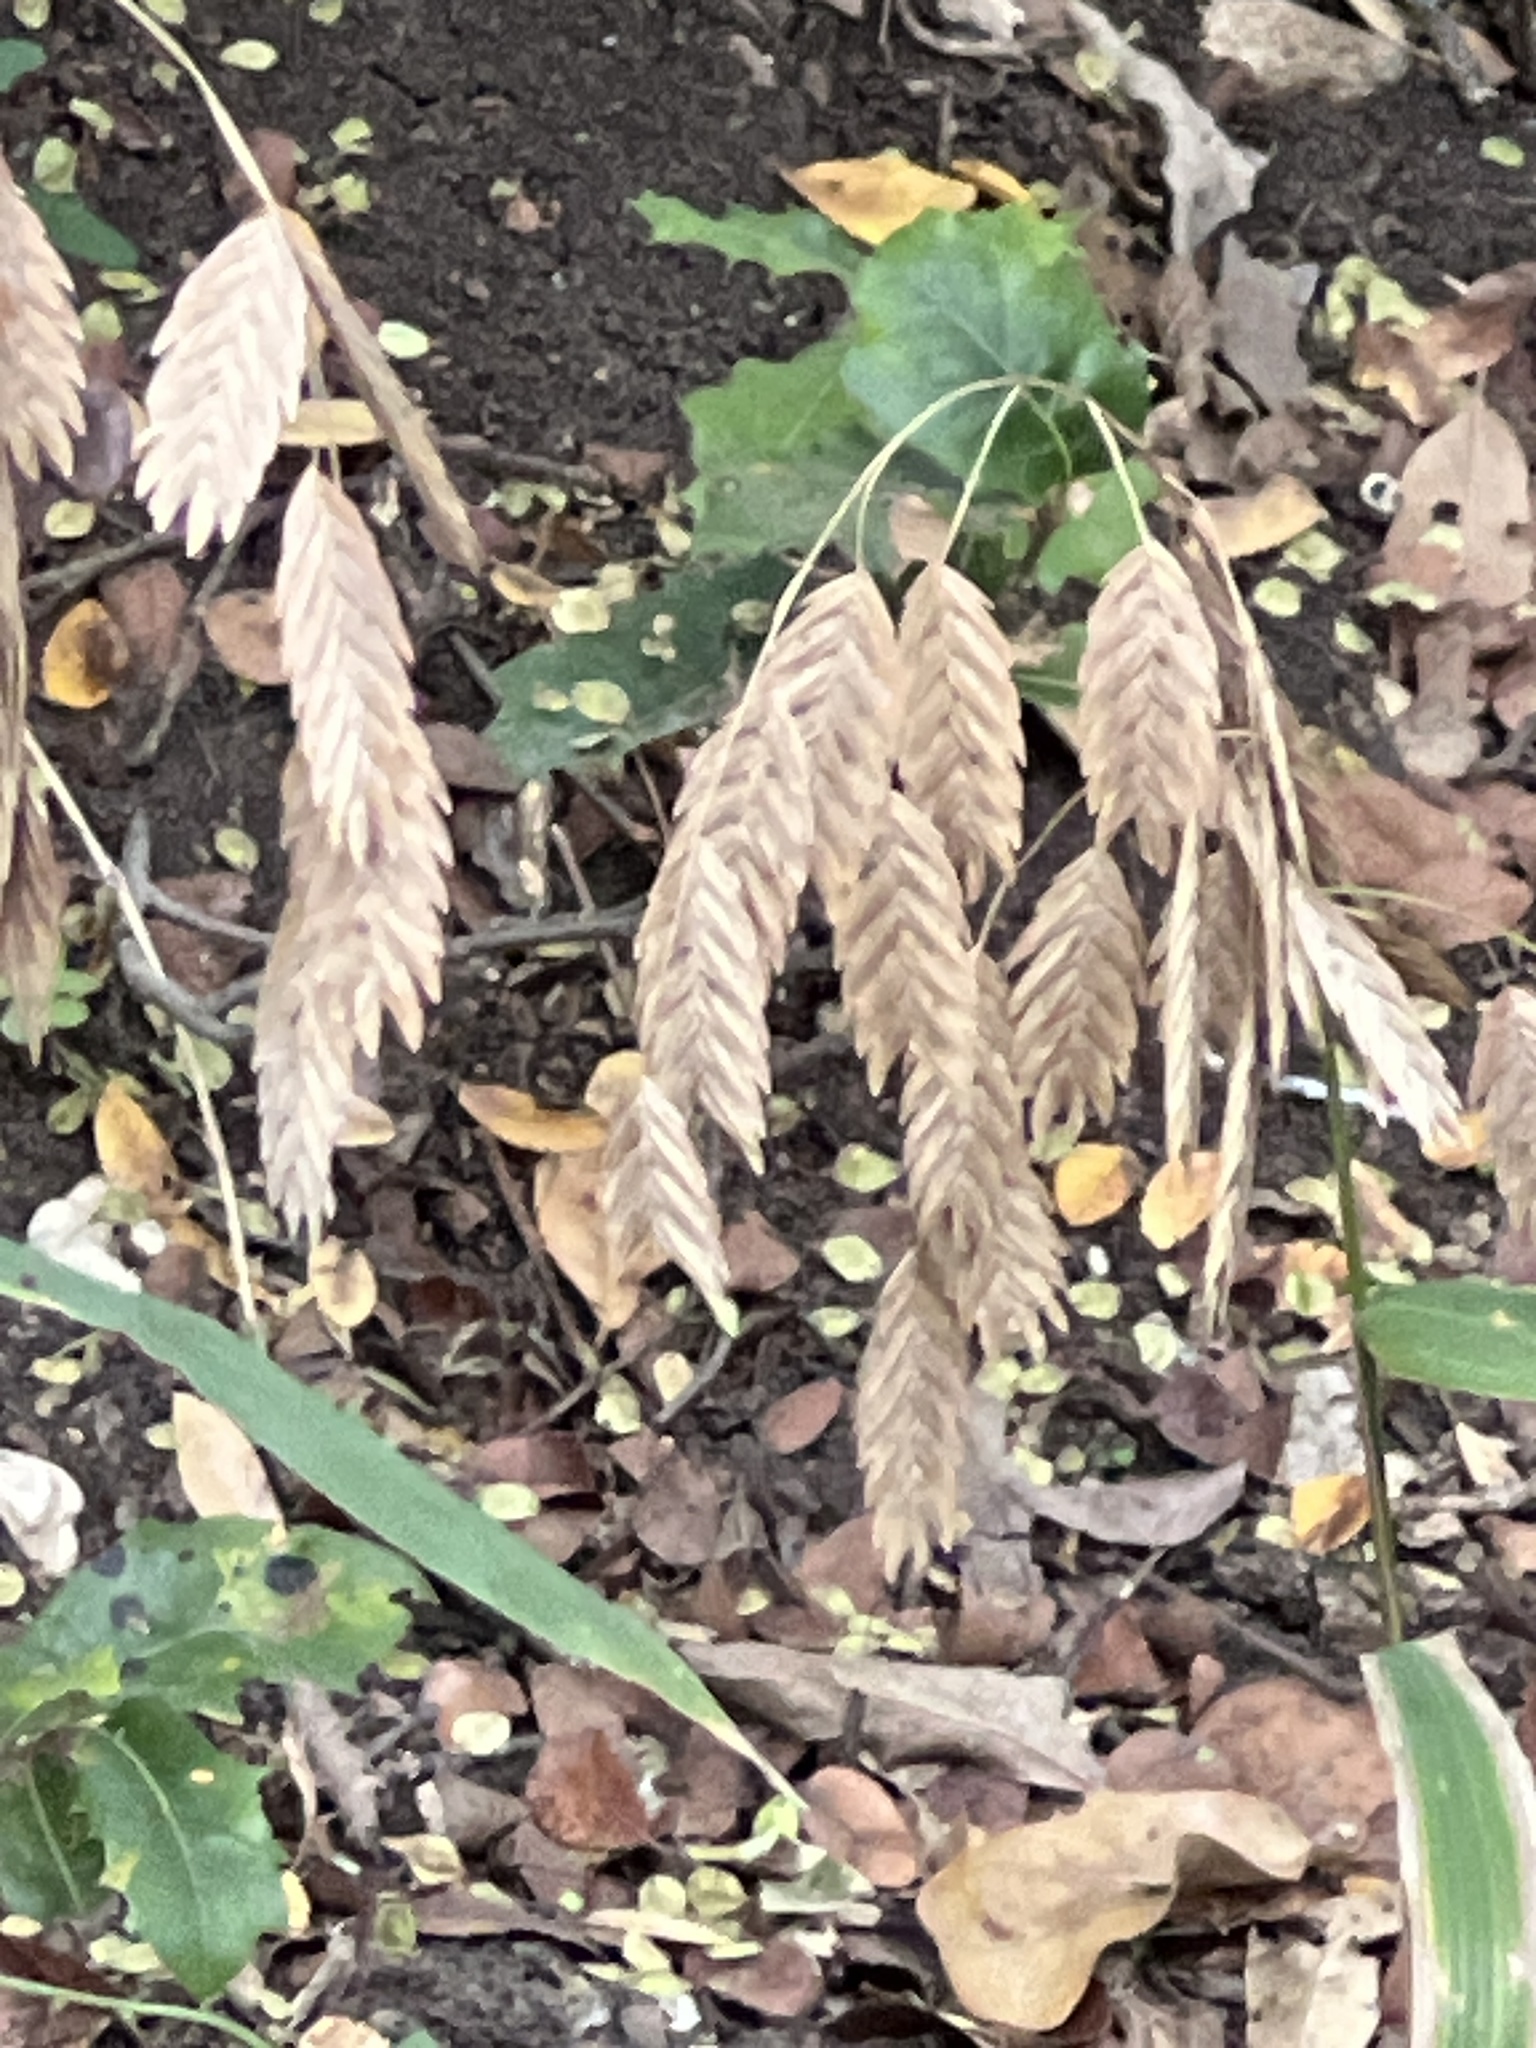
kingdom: Plantae
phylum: Tracheophyta
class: Liliopsida
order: Poales
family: Poaceae
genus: Chasmanthium
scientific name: Chasmanthium latifolium
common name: Broad-leaved chasmanthium
